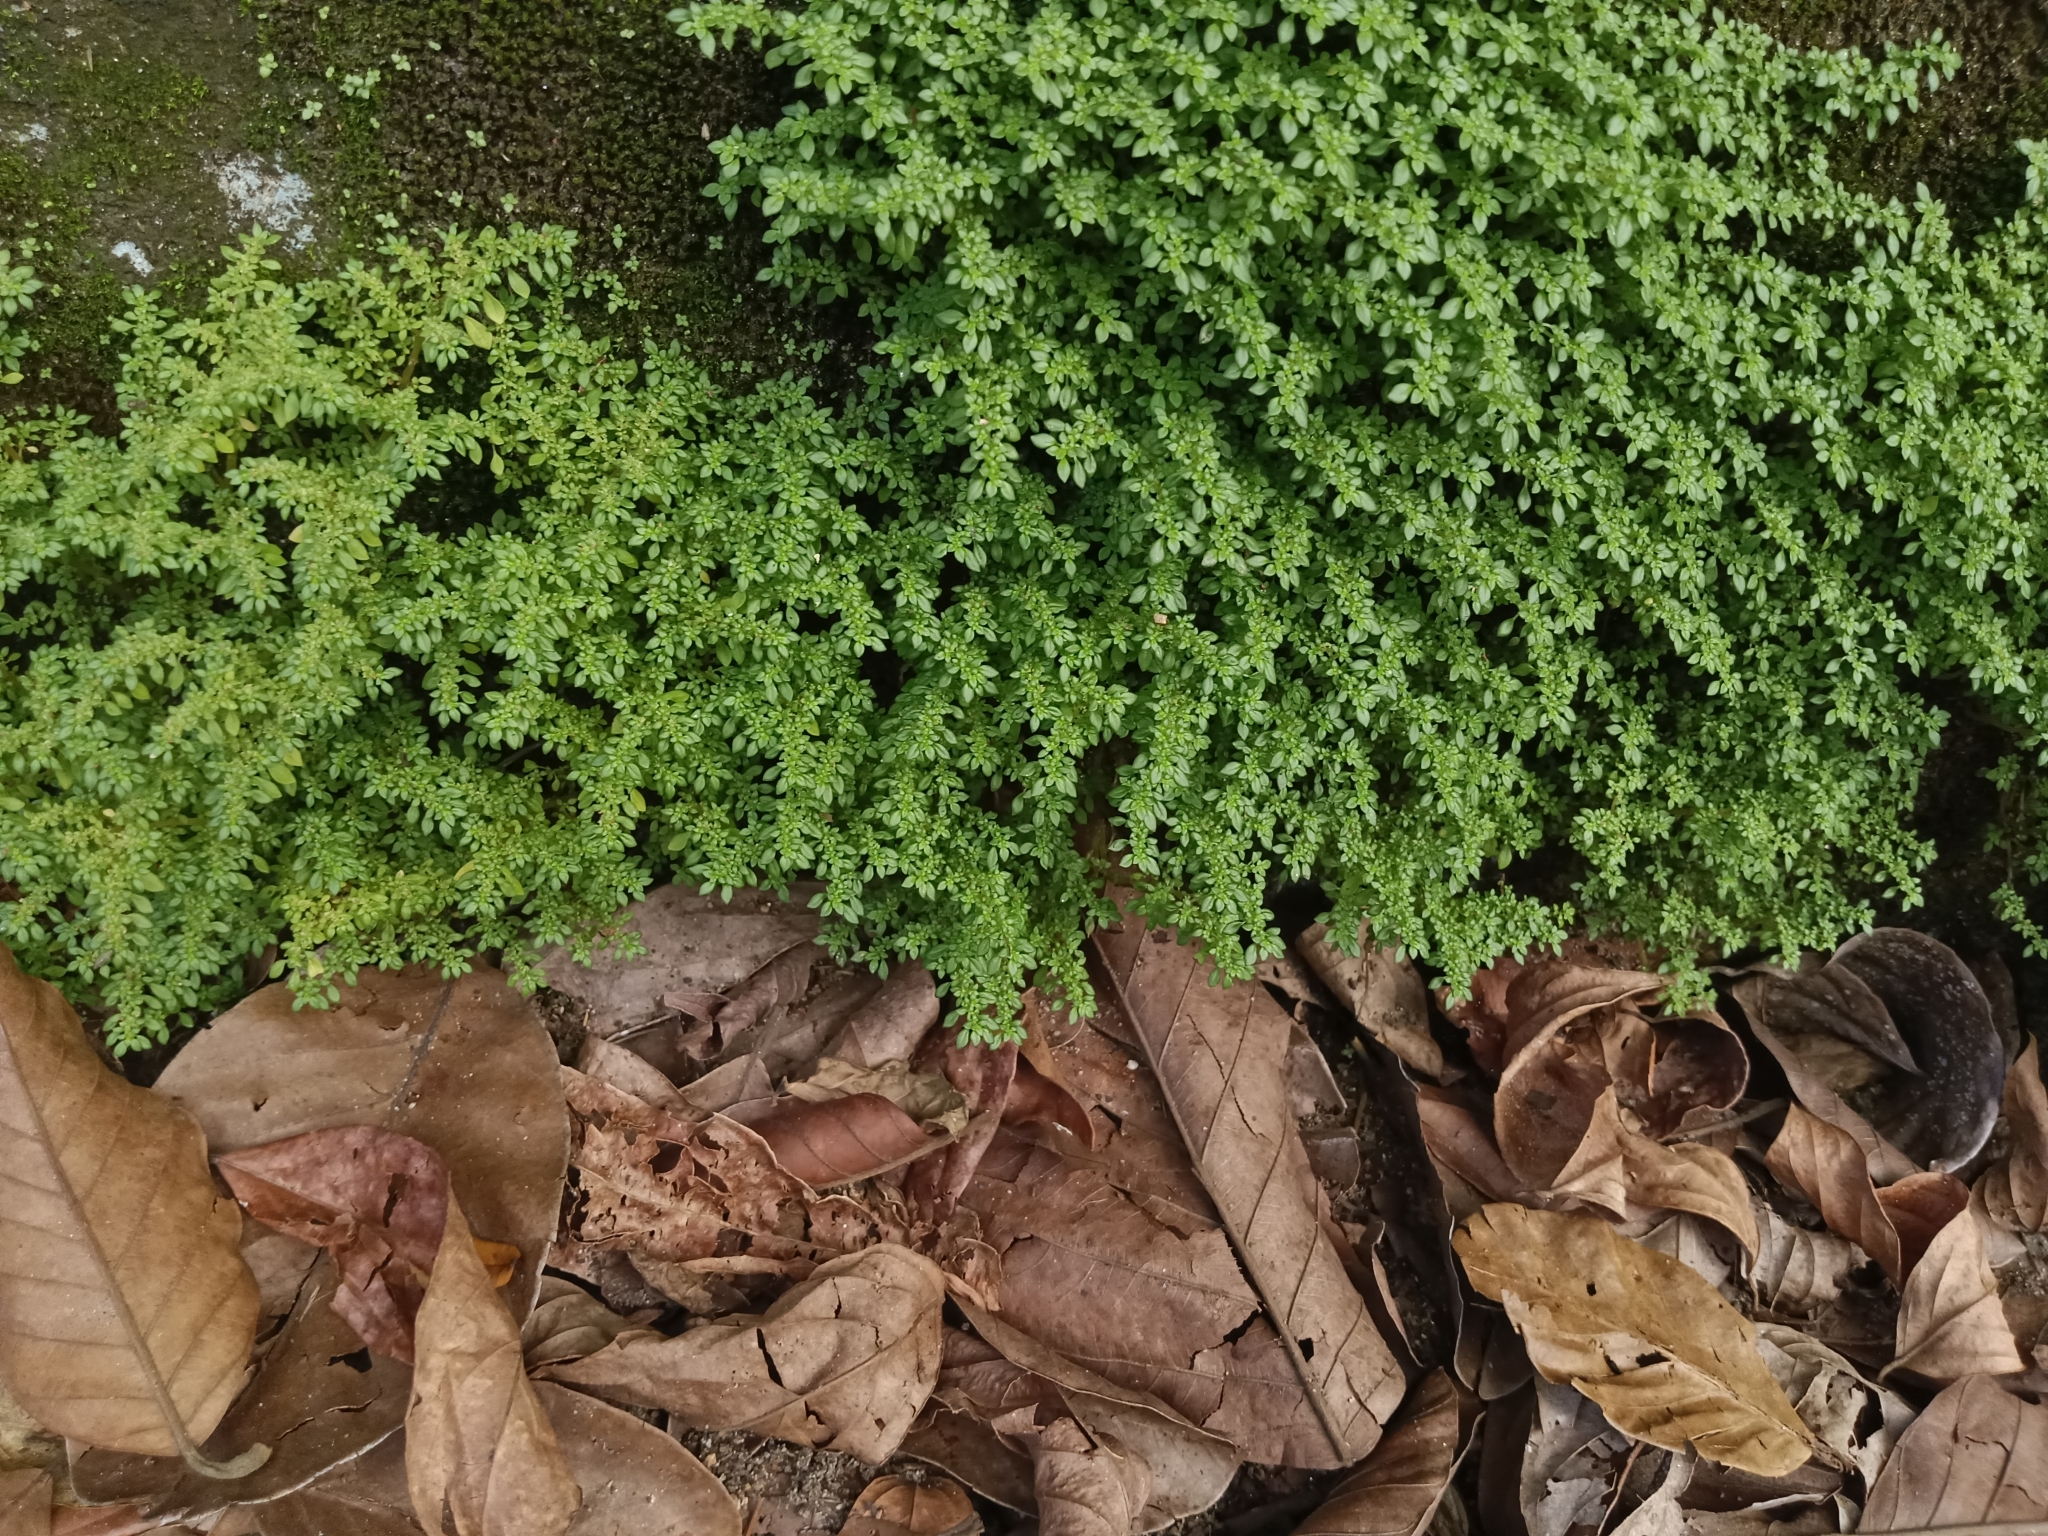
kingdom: Plantae
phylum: Tracheophyta
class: Magnoliopsida
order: Rosales
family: Urticaceae
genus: Pilea
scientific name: Pilea microphylla
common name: Artillery-plant
